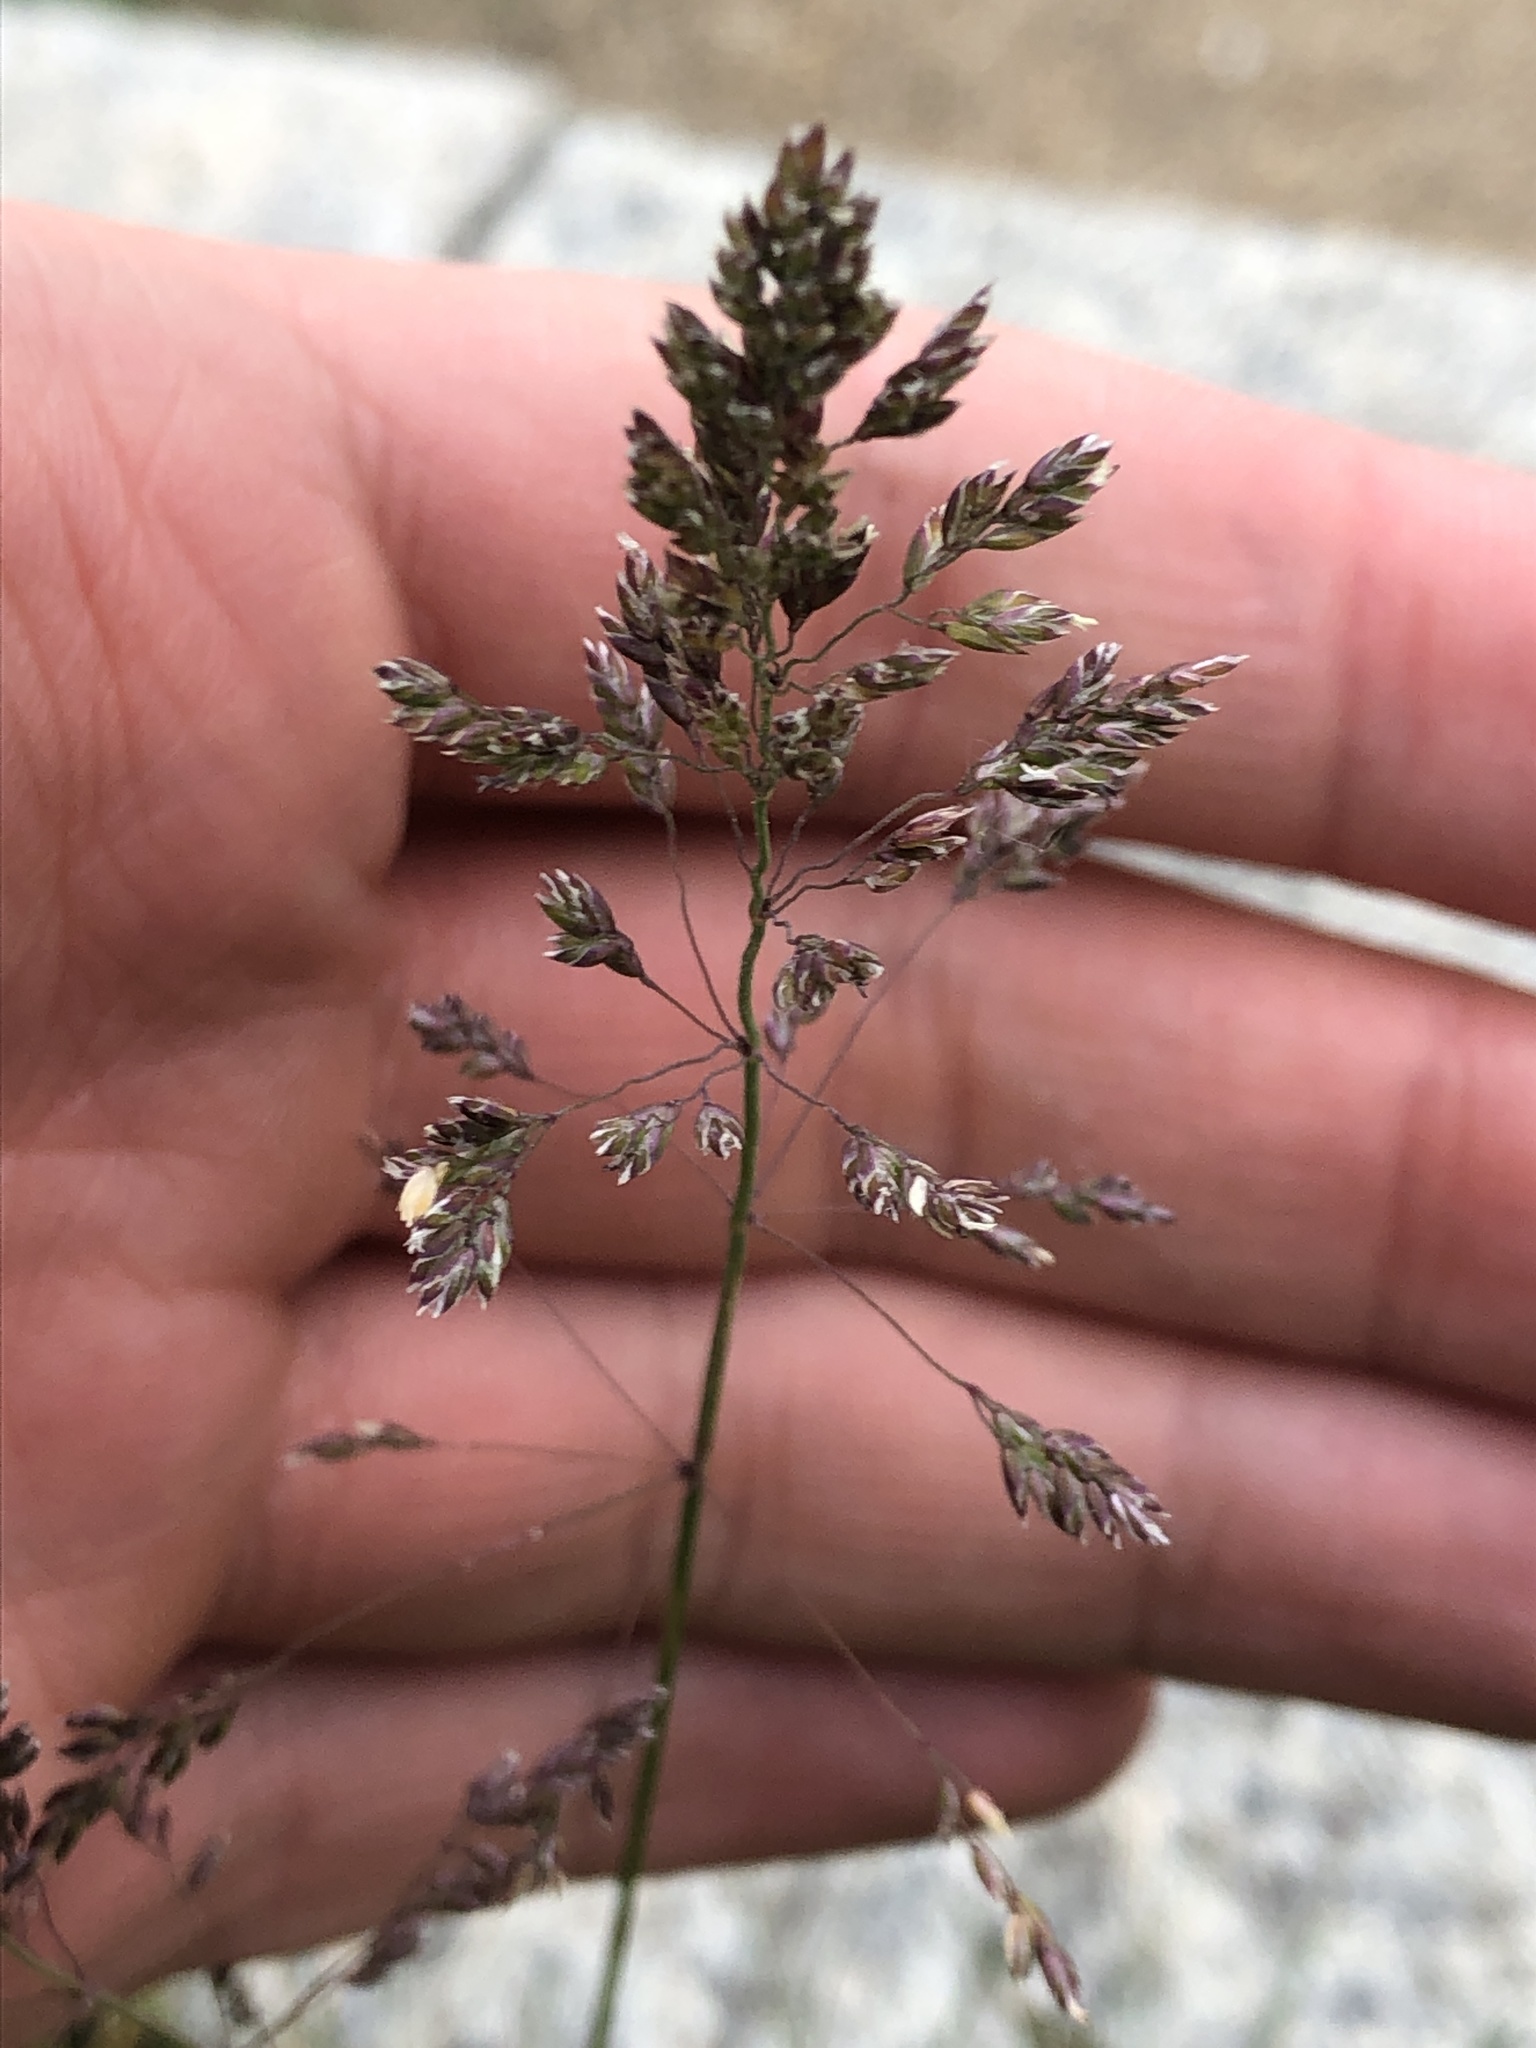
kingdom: Plantae
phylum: Tracheophyta
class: Liliopsida
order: Poales
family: Poaceae
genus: Poa
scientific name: Poa pratensis
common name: Kentucky bluegrass
